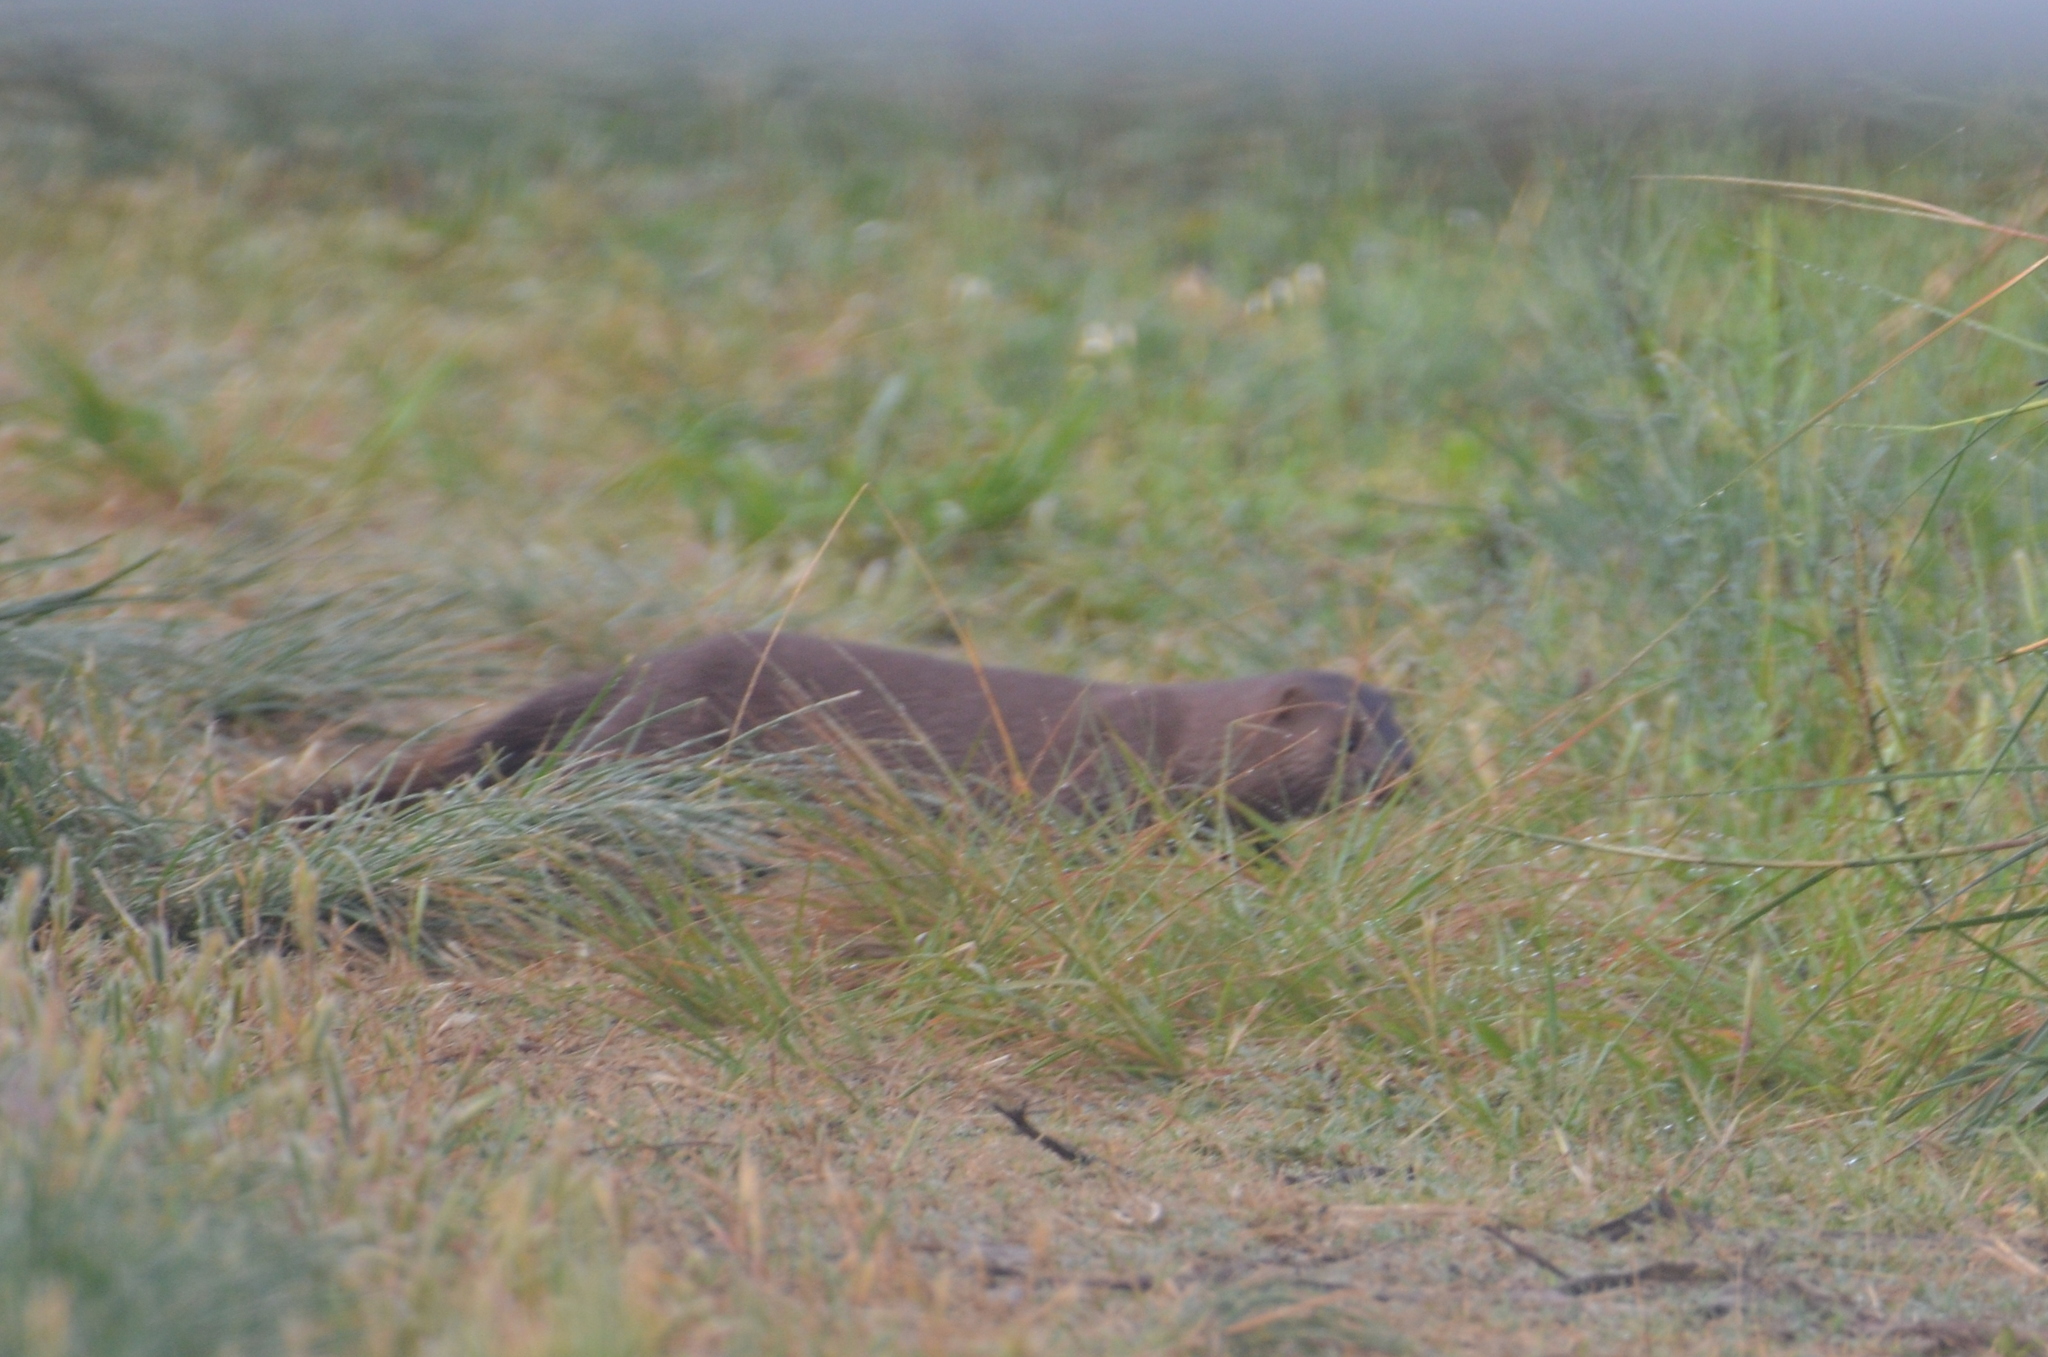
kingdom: Animalia
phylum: Chordata
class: Mammalia
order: Carnivora
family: Mustelidae
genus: Mustela
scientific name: Mustela
